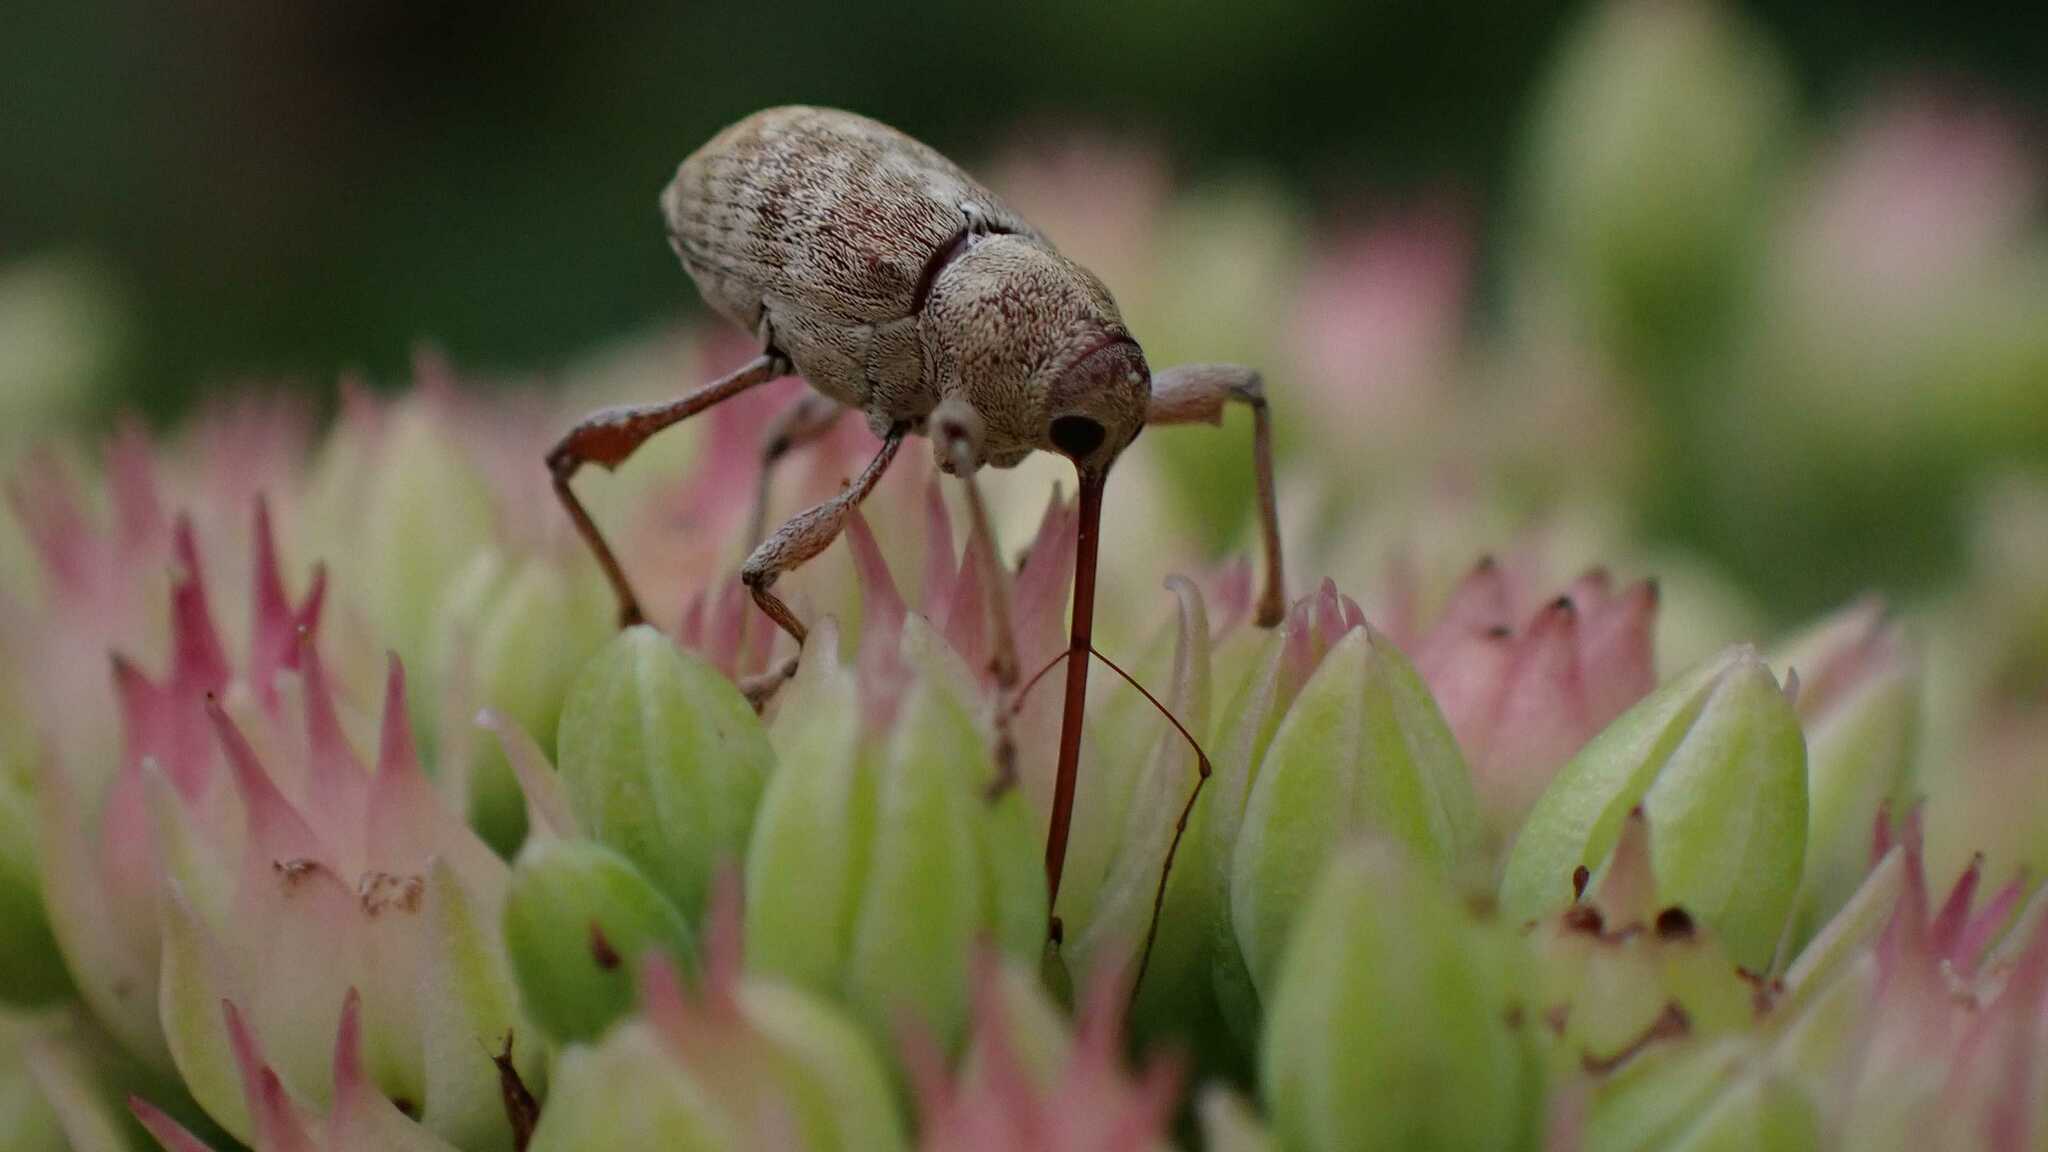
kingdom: Animalia
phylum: Arthropoda
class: Insecta
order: Coleoptera
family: Curculionidae
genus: Curculio
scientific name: Curculio elephas
